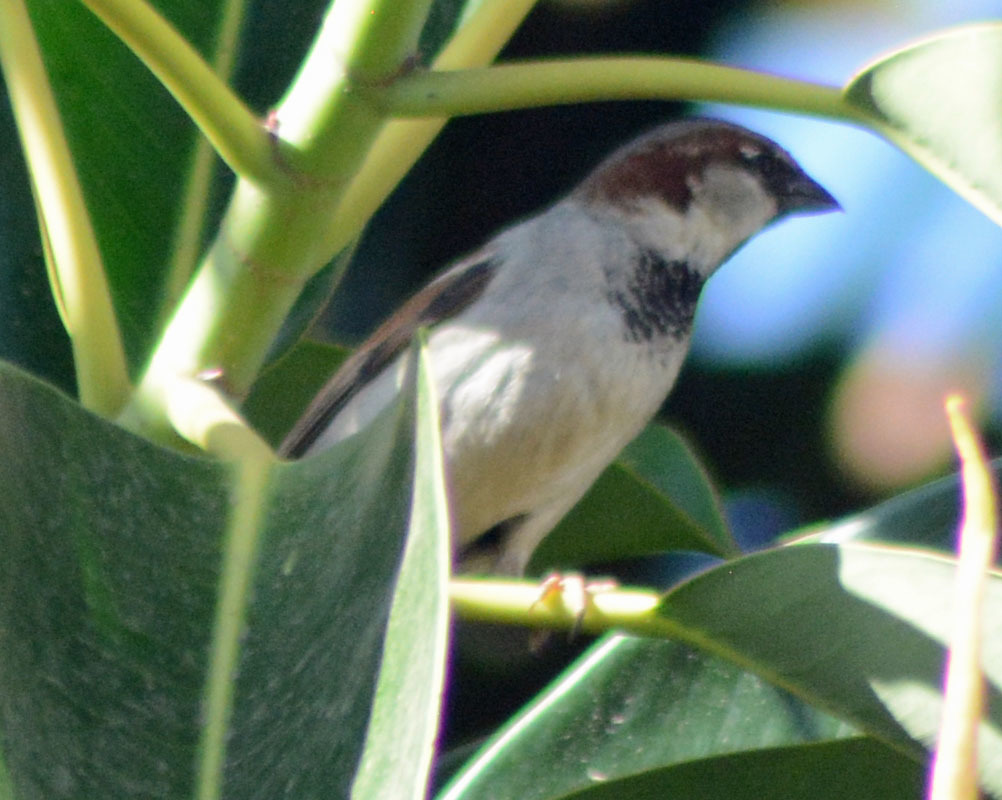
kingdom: Animalia
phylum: Chordata
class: Aves
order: Passeriformes
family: Passeridae
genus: Passer
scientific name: Passer domesticus
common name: House sparrow
